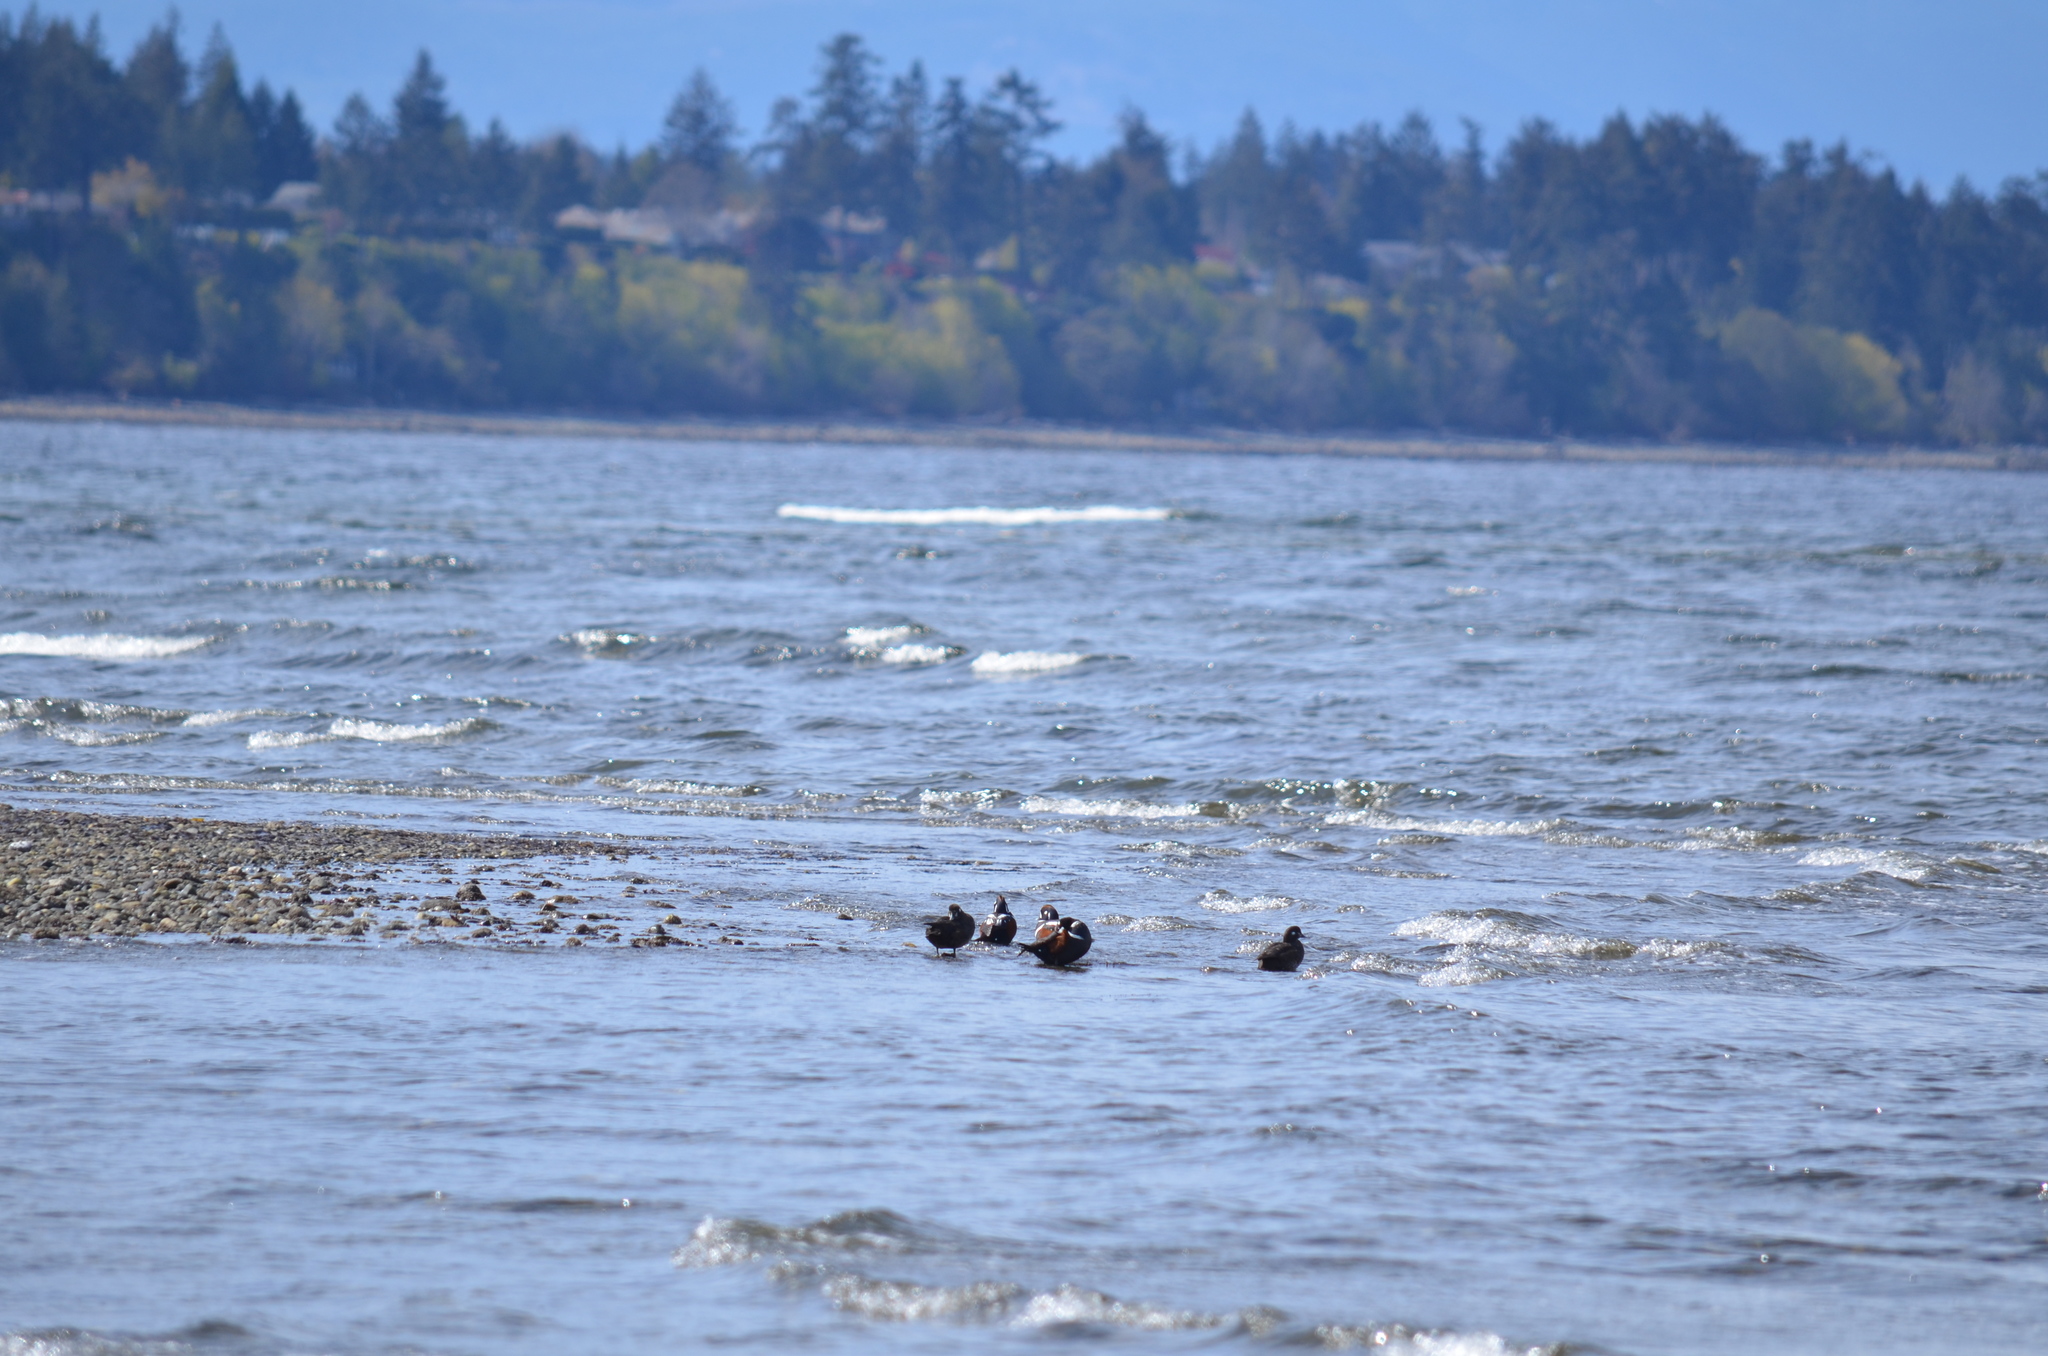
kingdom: Animalia
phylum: Chordata
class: Aves
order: Anseriformes
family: Anatidae
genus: Histrionicus
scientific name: Histrionicus histrionicus
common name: Harlequin duck
